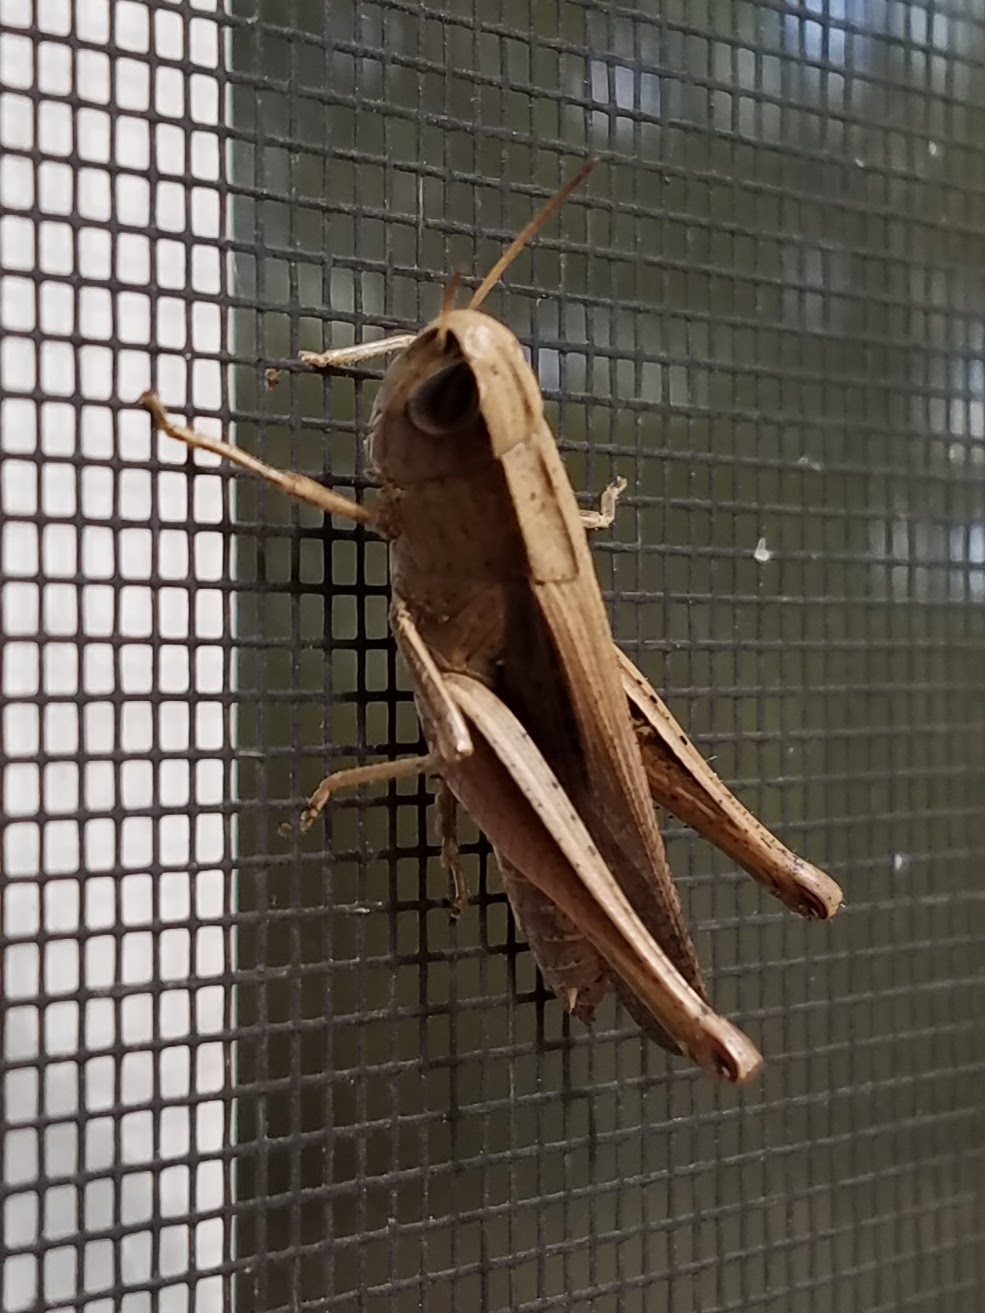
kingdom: Animalia
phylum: Arthropoda
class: Insecta
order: Orthoptera
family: Acrididae
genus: Amblytropidia
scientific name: Amblytropidia mysteca
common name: Brown winter grasshopper
